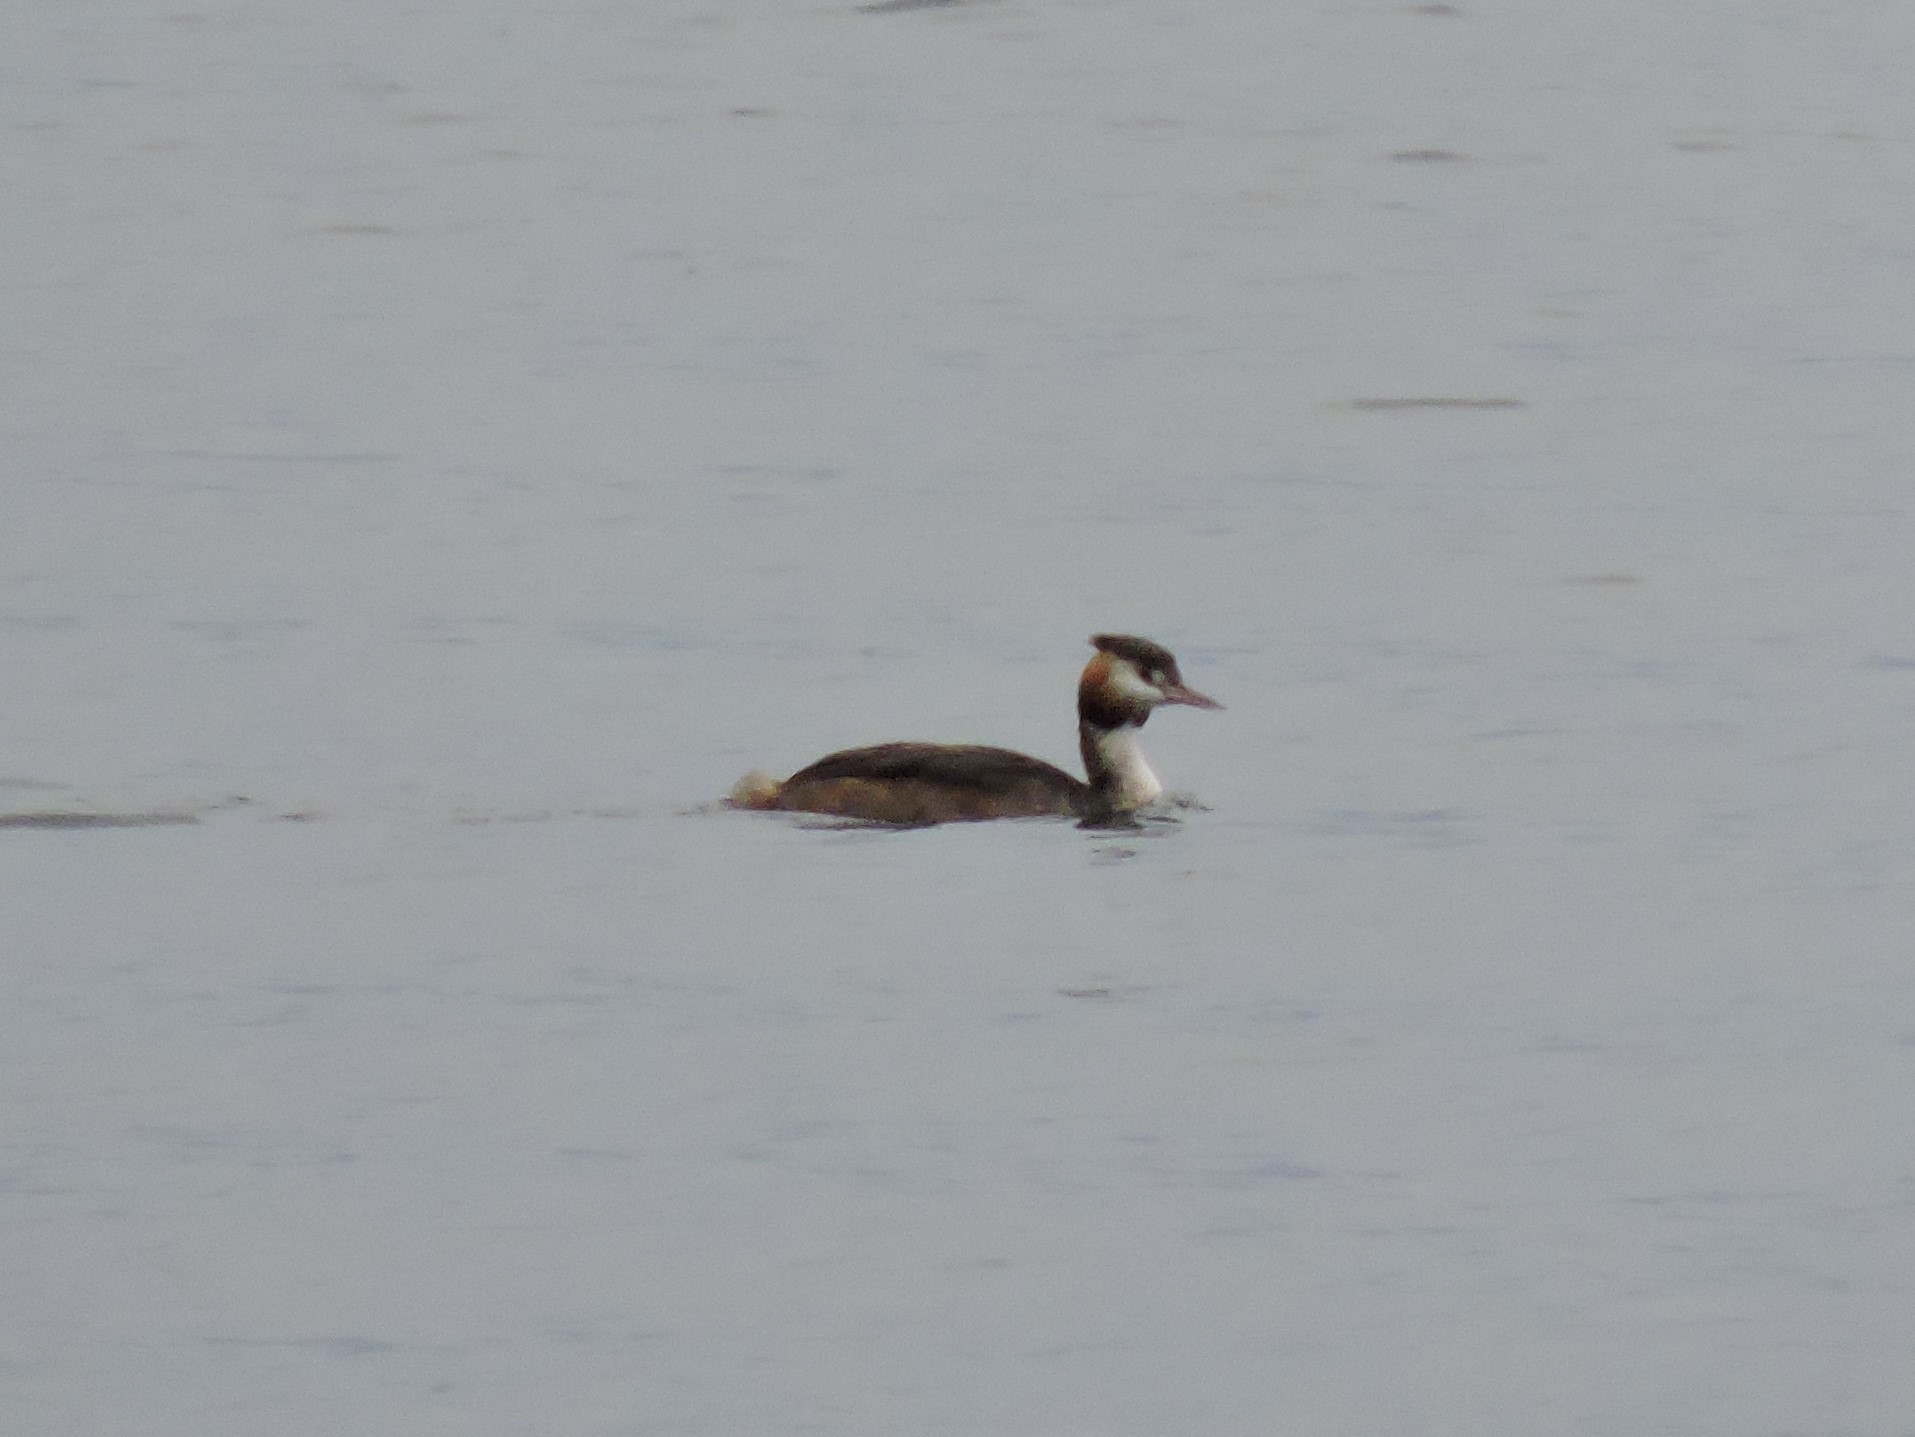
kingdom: Animalia
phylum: Chordata
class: Aves
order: Podicipediformes
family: Podicipedidae
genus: Podiceps
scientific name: Podiceps cristatus
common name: Great crested grebe
